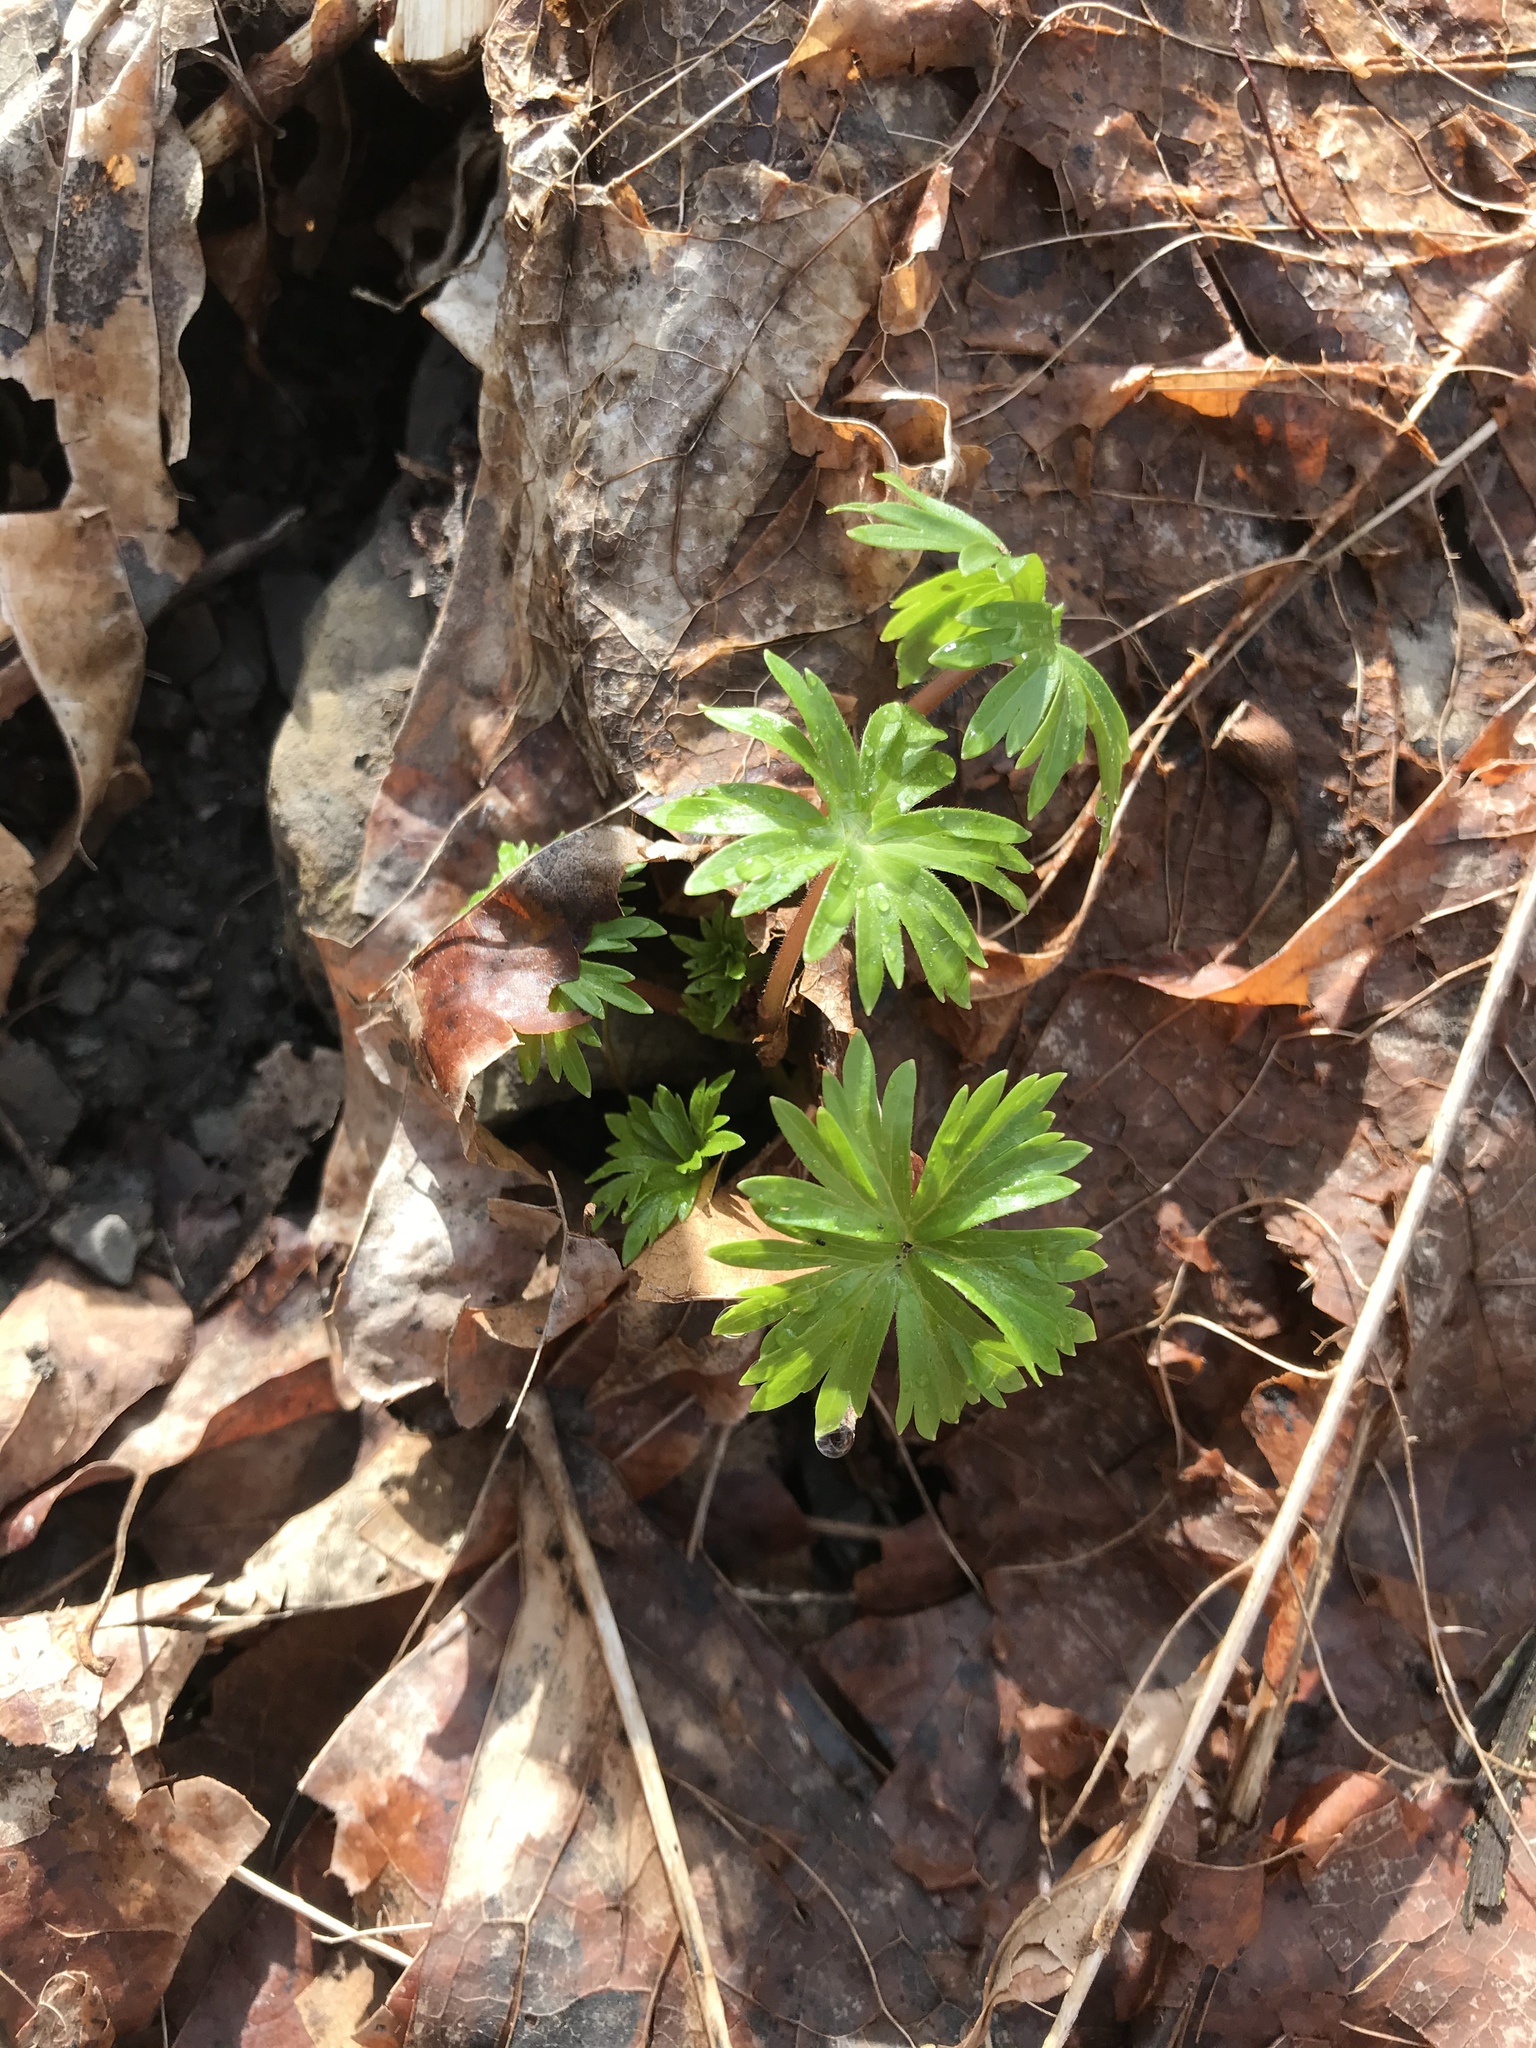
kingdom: Plantae
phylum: Tracheophyta
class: Magnoliopsida
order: Ranunculales
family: Ranunculaceae
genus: Delphinium
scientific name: Delphinium tricorne
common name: Dwarf larkspur
